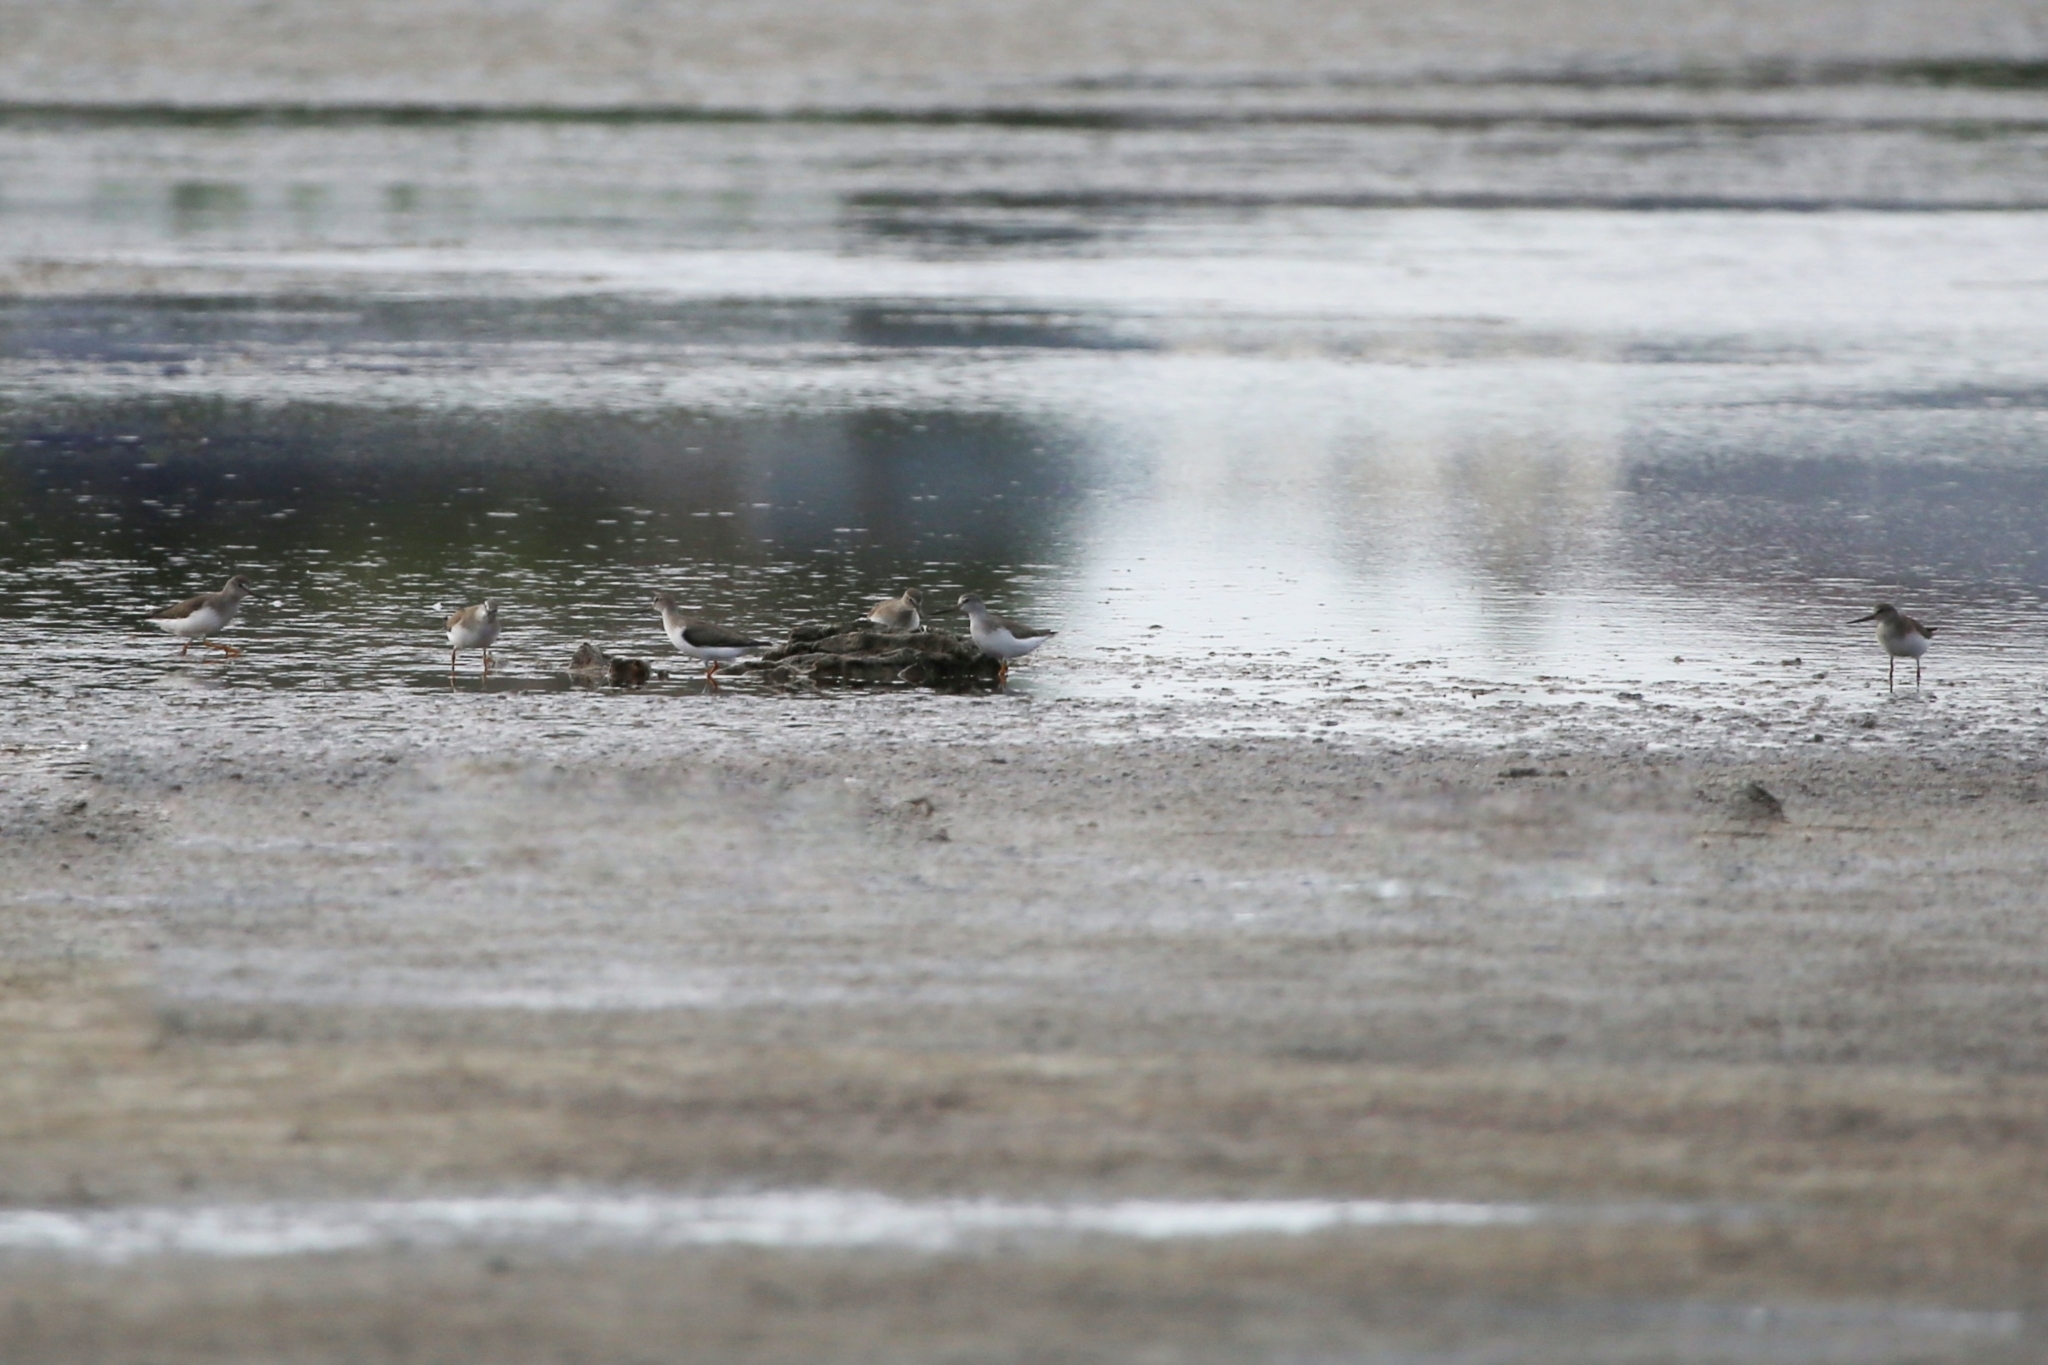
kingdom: Animalia
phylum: Chordata
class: Aves
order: Charadriiformes
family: Scolopacidae
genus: Xenus
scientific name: Xenus cinereus
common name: Terek sandpiper
